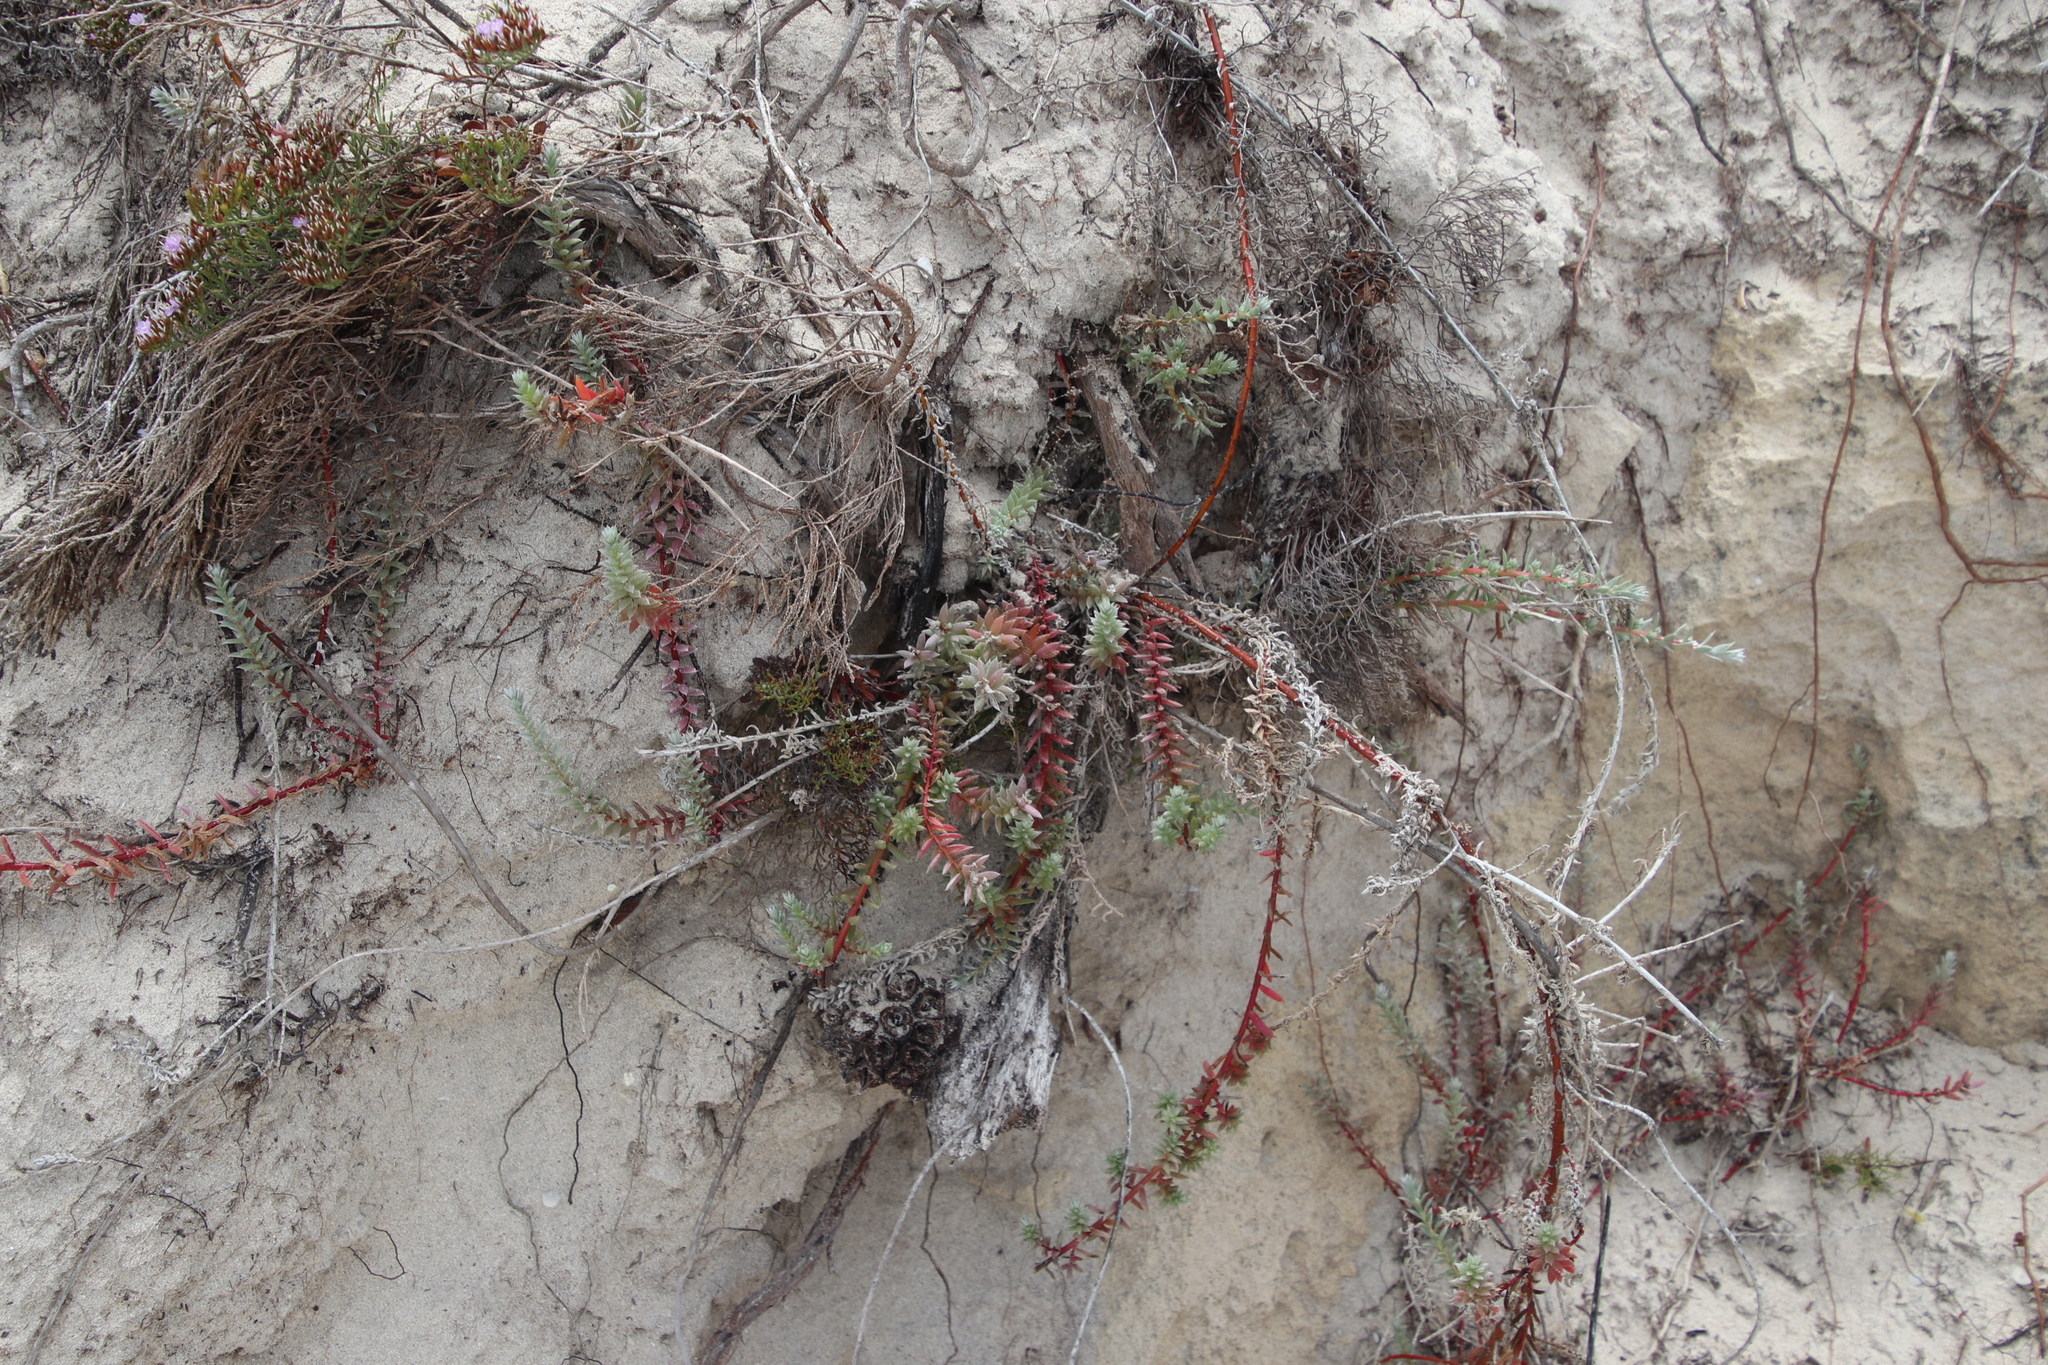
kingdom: Plantae
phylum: Tracheophyta
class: Magnoliopsida
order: Caryophyllales
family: Amaranthaceae
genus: Chenolea
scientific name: Chenolea diffusa
